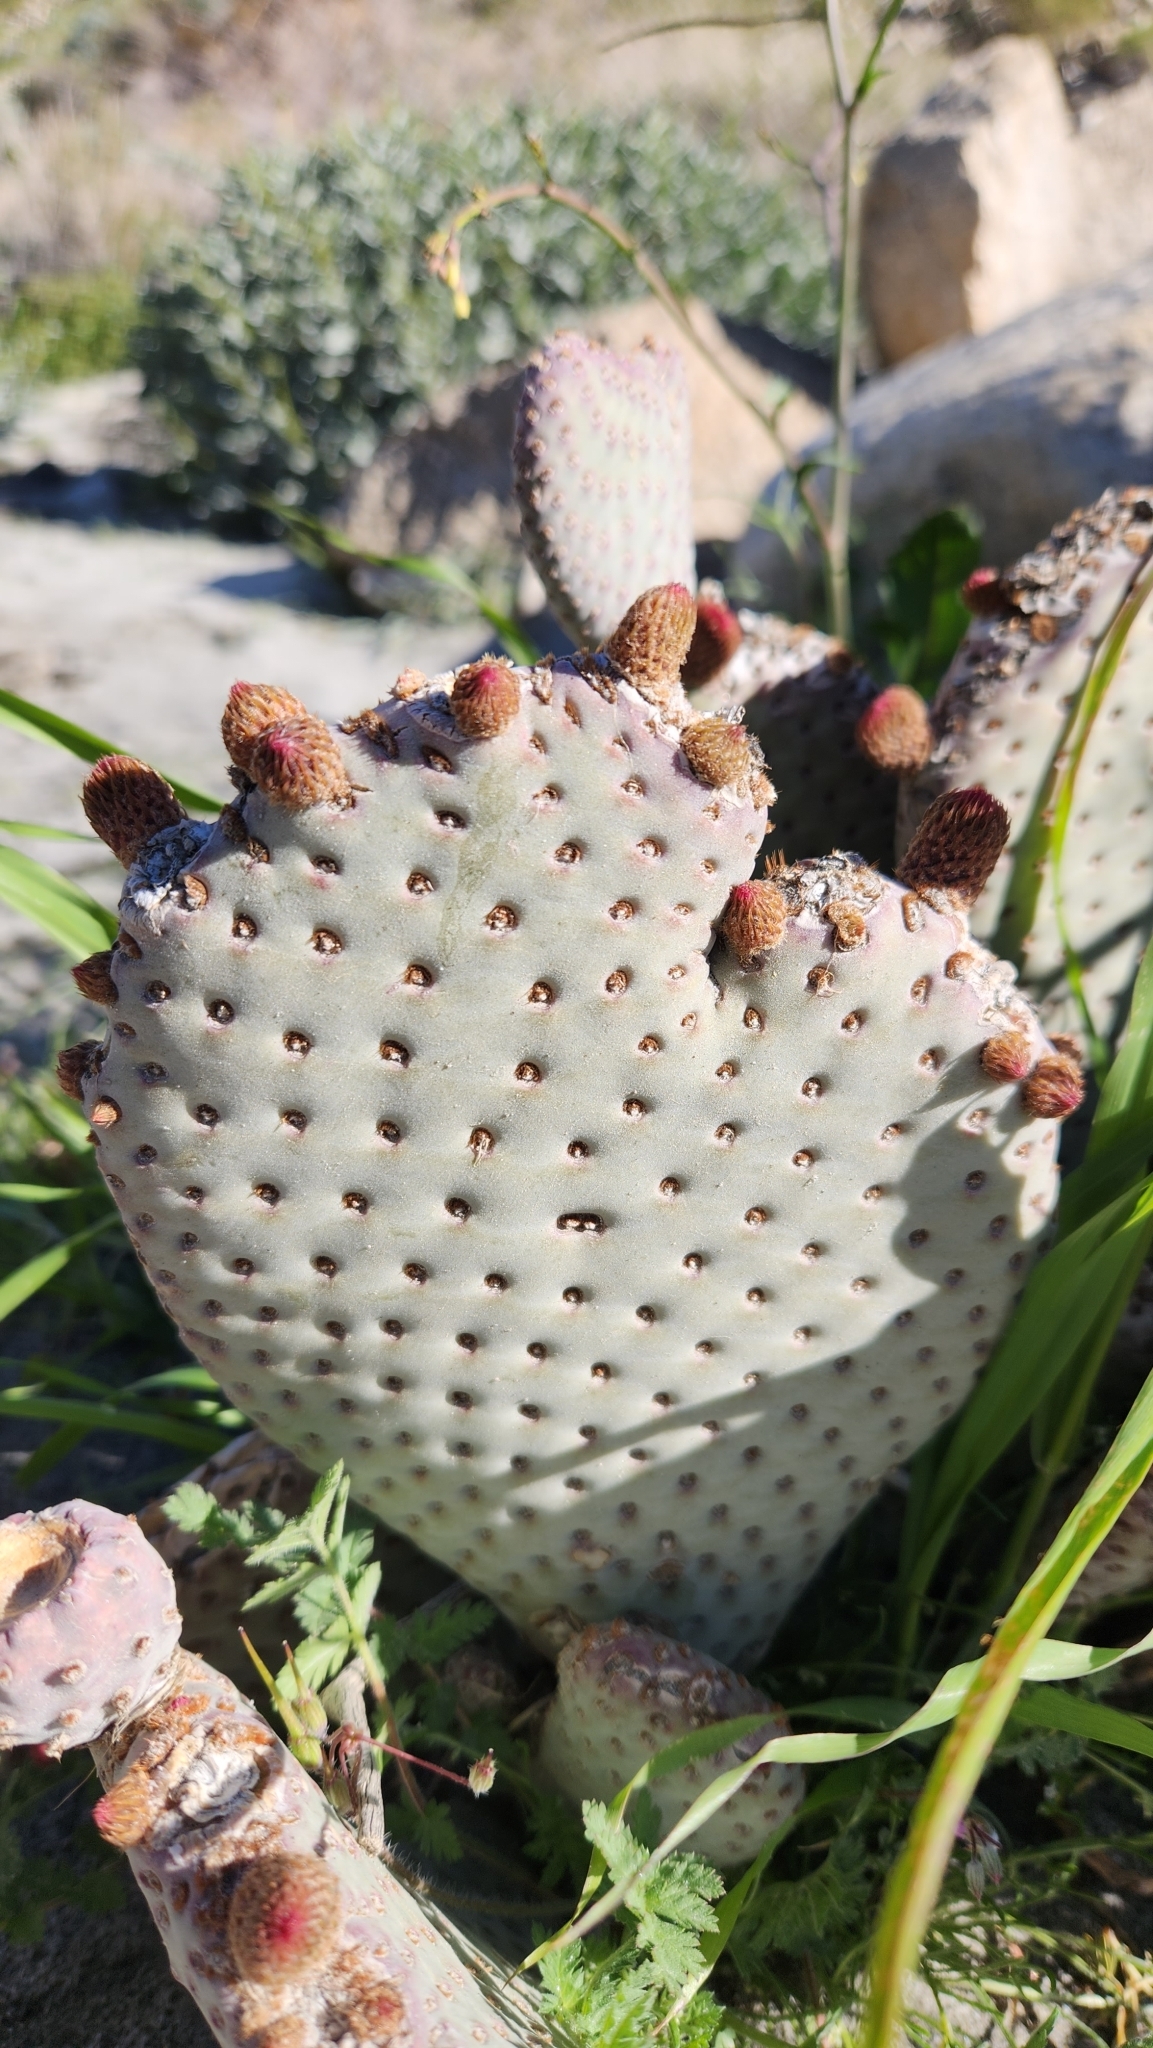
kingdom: Plantae
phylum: Tracheophyta
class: Magnoliopsida
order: Caryophyllales
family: Cactaceae
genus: Opuntia
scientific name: Opuntia basilaris
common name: Beavertail prickly-pear
